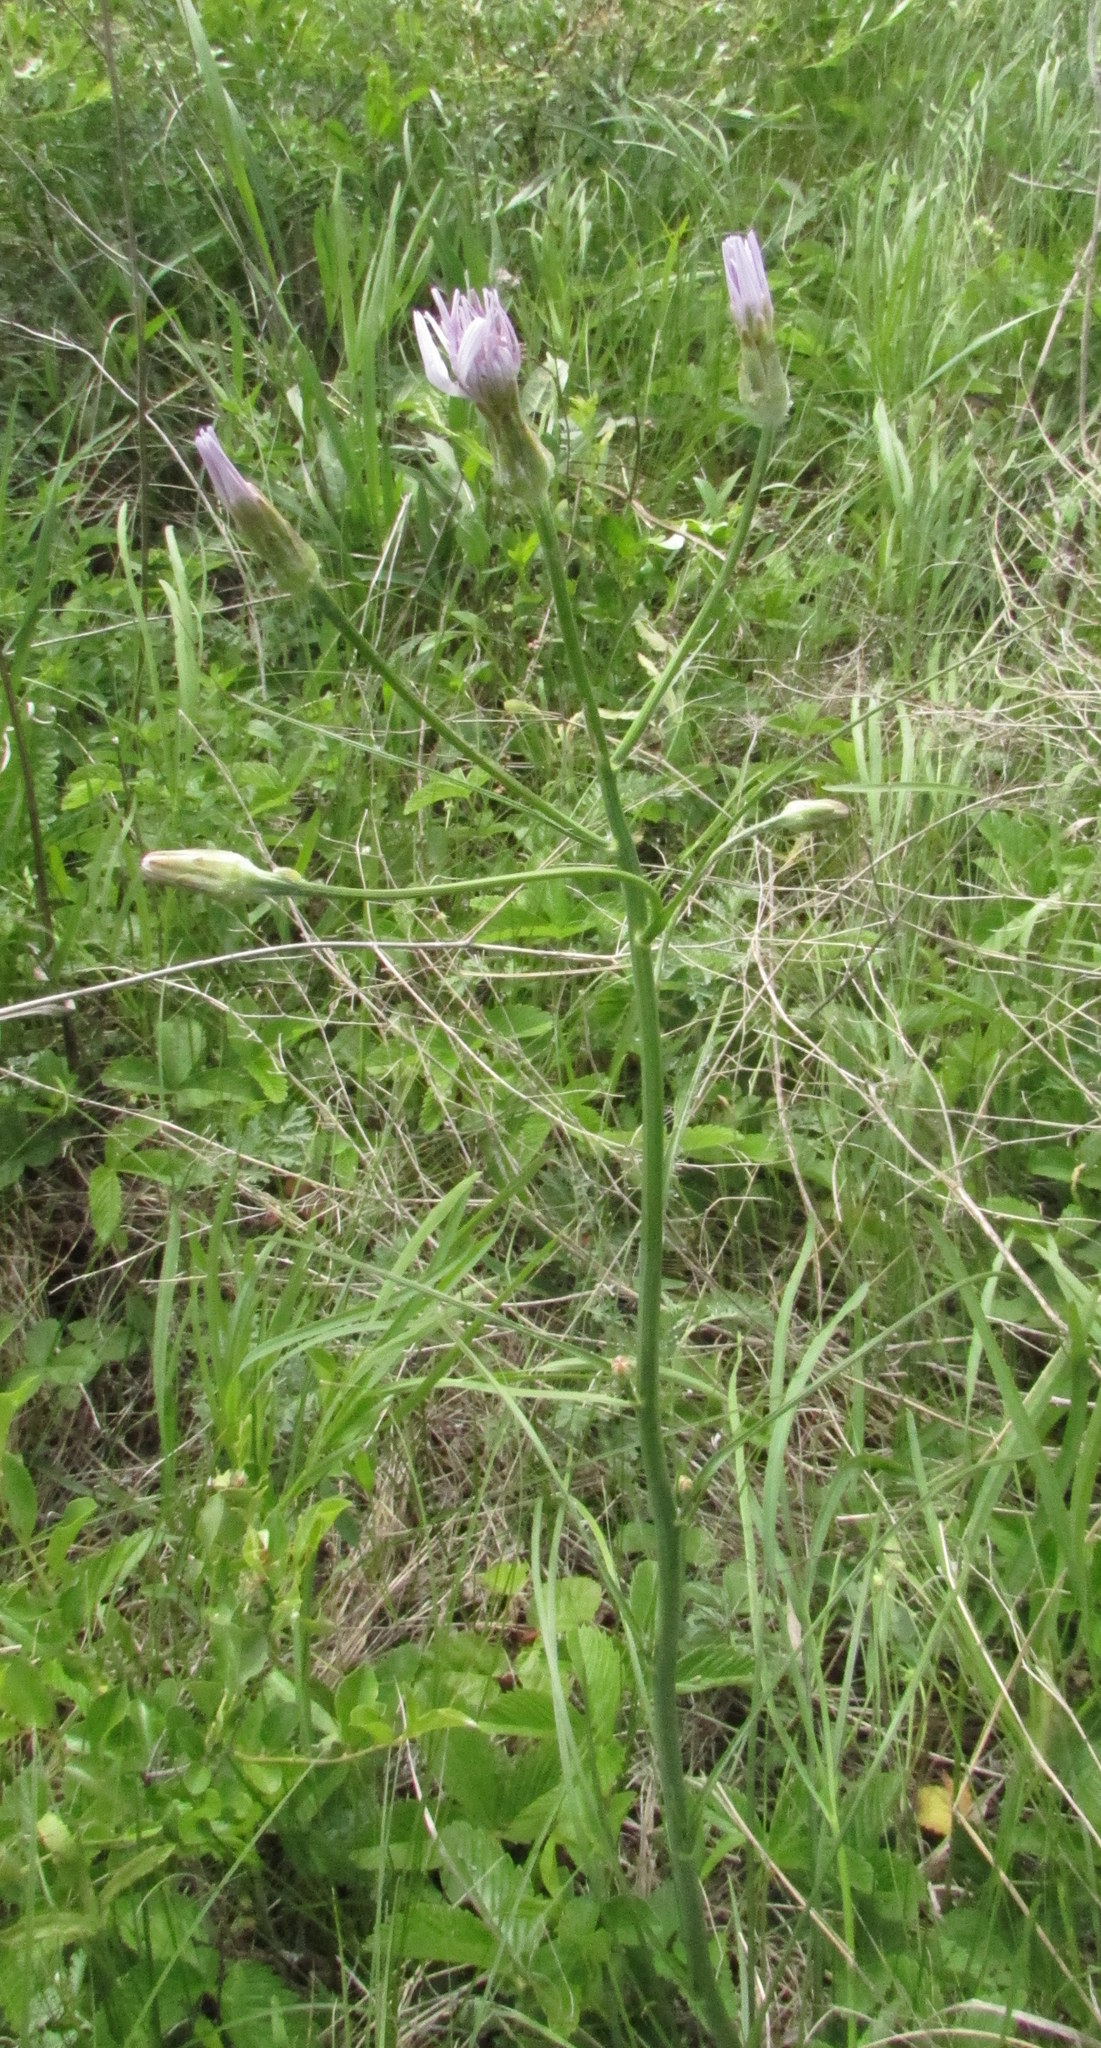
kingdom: Plantae
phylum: Tracheophyta
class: Magnoliopsida
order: Asterales
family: Asteraceae
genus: Scorzonera
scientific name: Scorzonera purpurea
